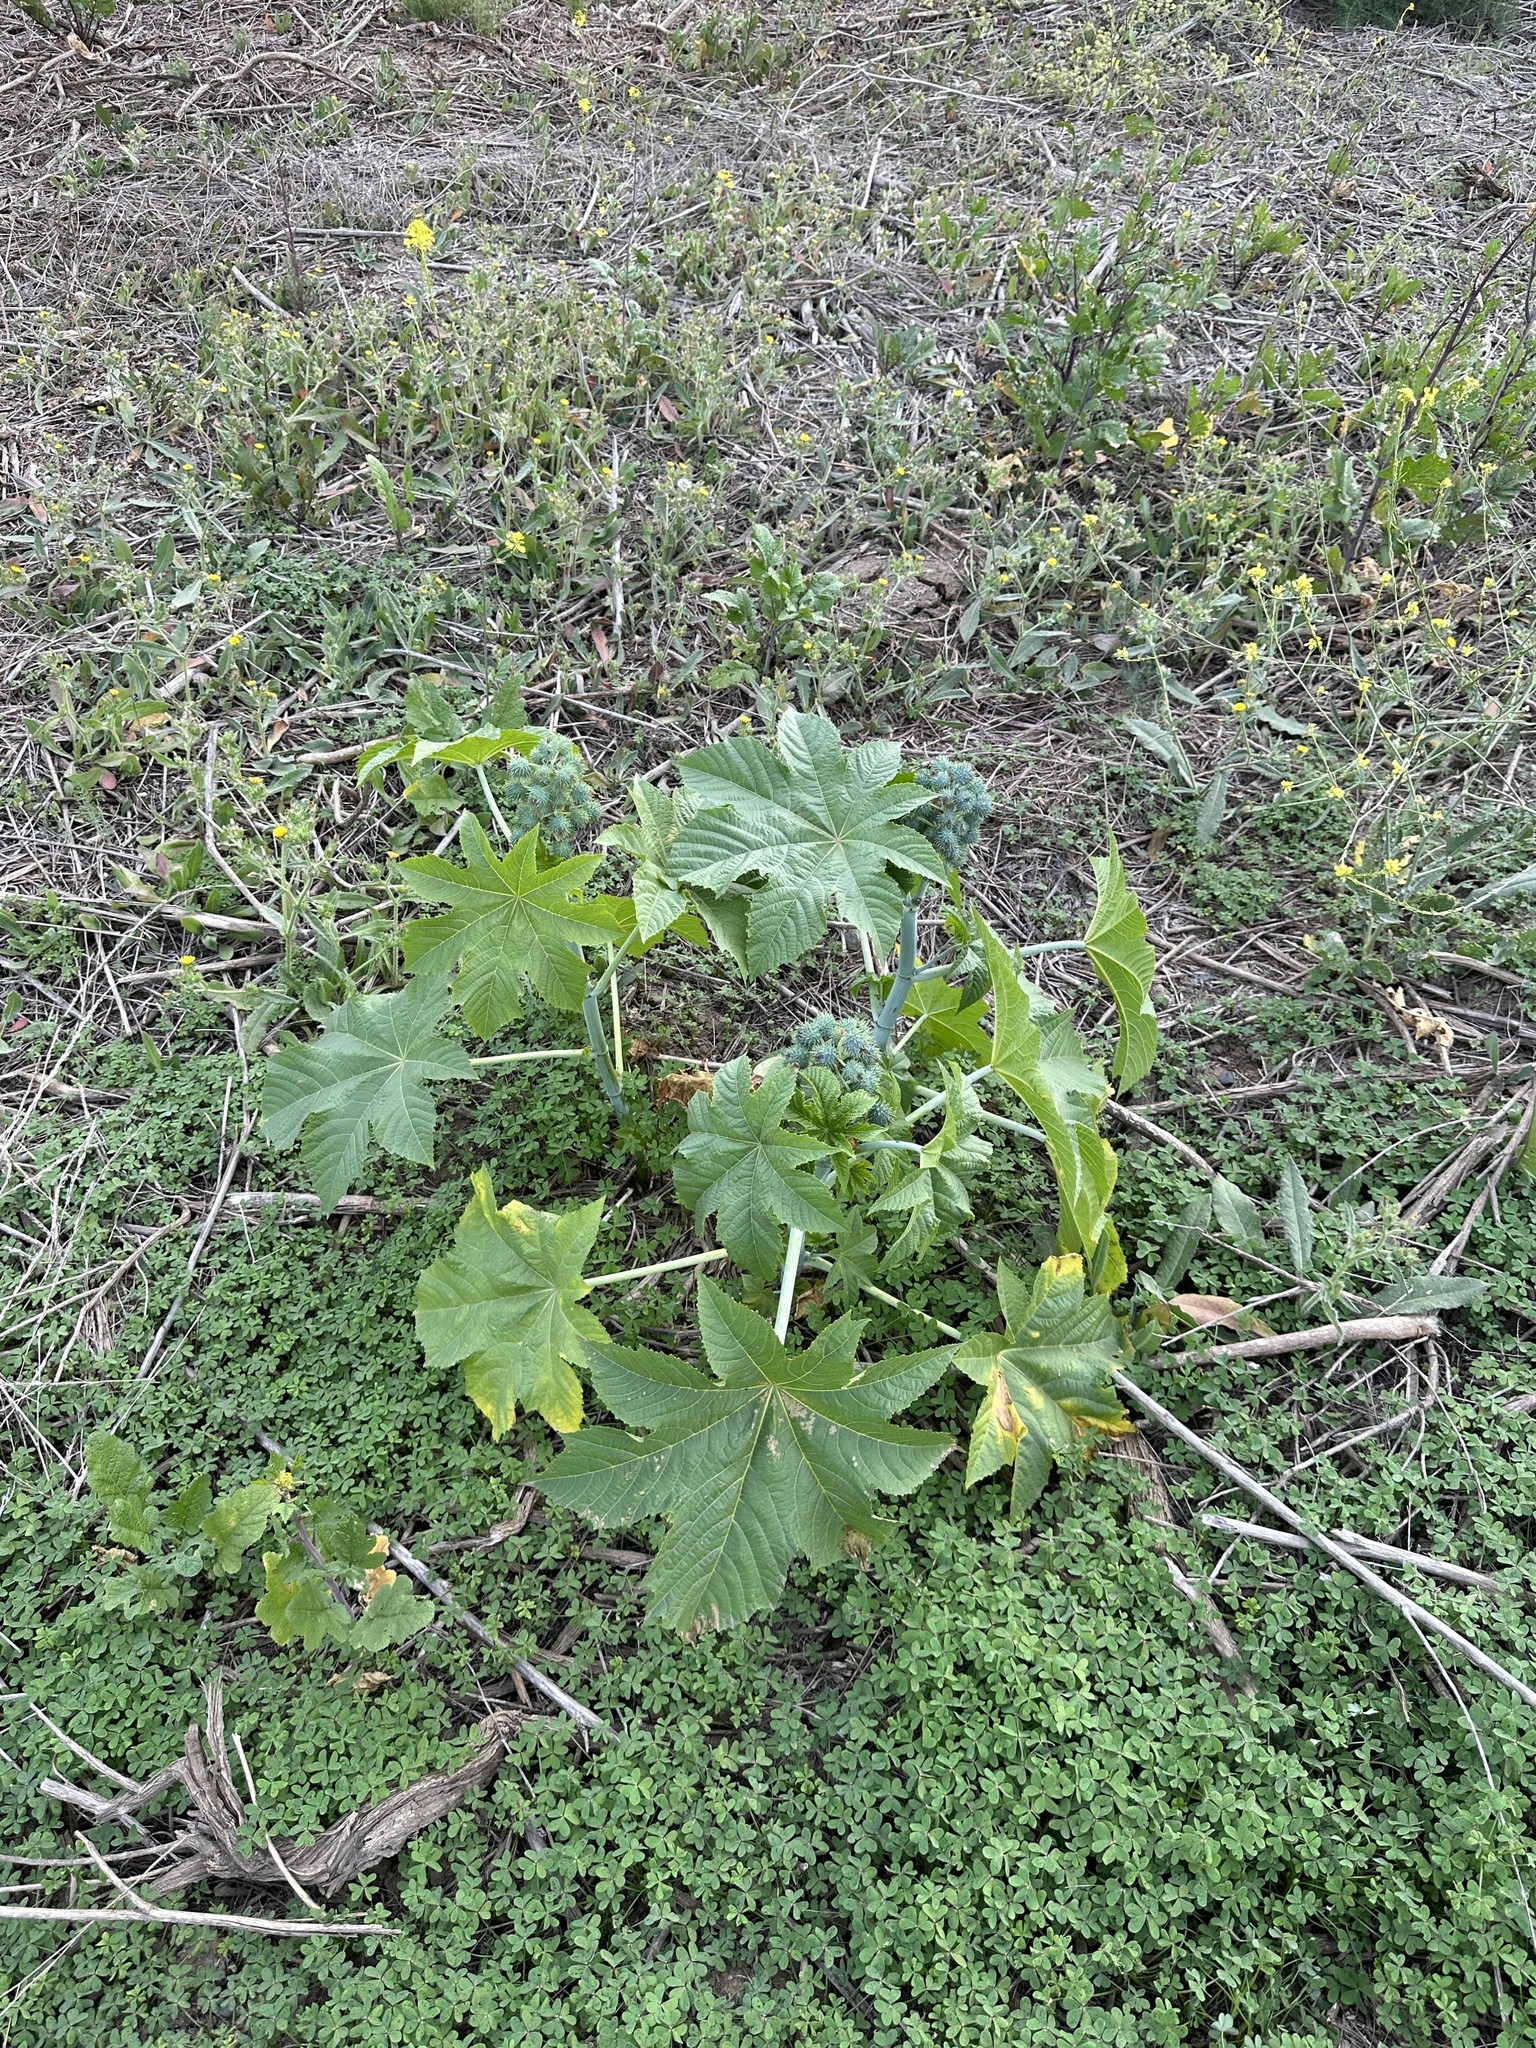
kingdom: Plantae
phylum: Tracheophyta
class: Magnoliopsida
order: Malpighiales
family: Euphorbiaceae
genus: Ricinus
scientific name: Ricinus communis
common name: Castor-oil-plant
